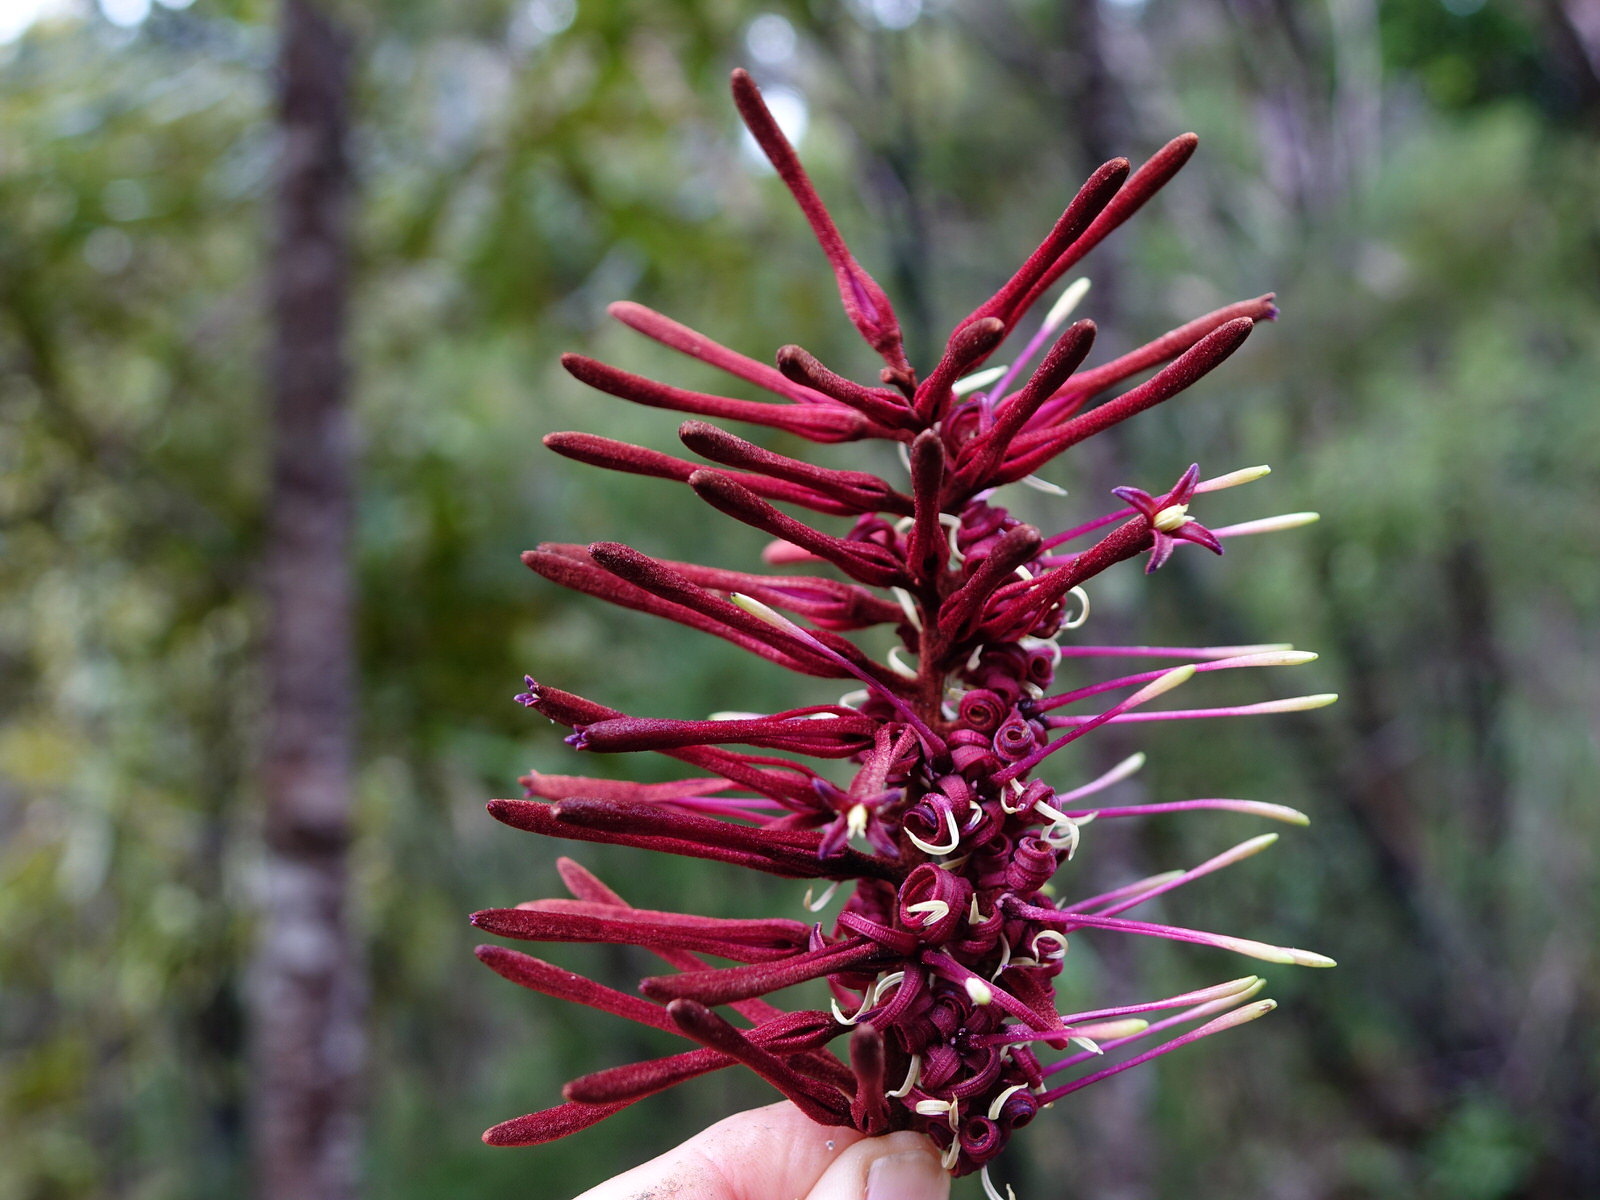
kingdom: Plantae
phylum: Tracheophyta
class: Magnoliopsida
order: Proteales
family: Proteaceae
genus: Knightia
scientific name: Knightia excelsa
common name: New zealand-honeysuckle
